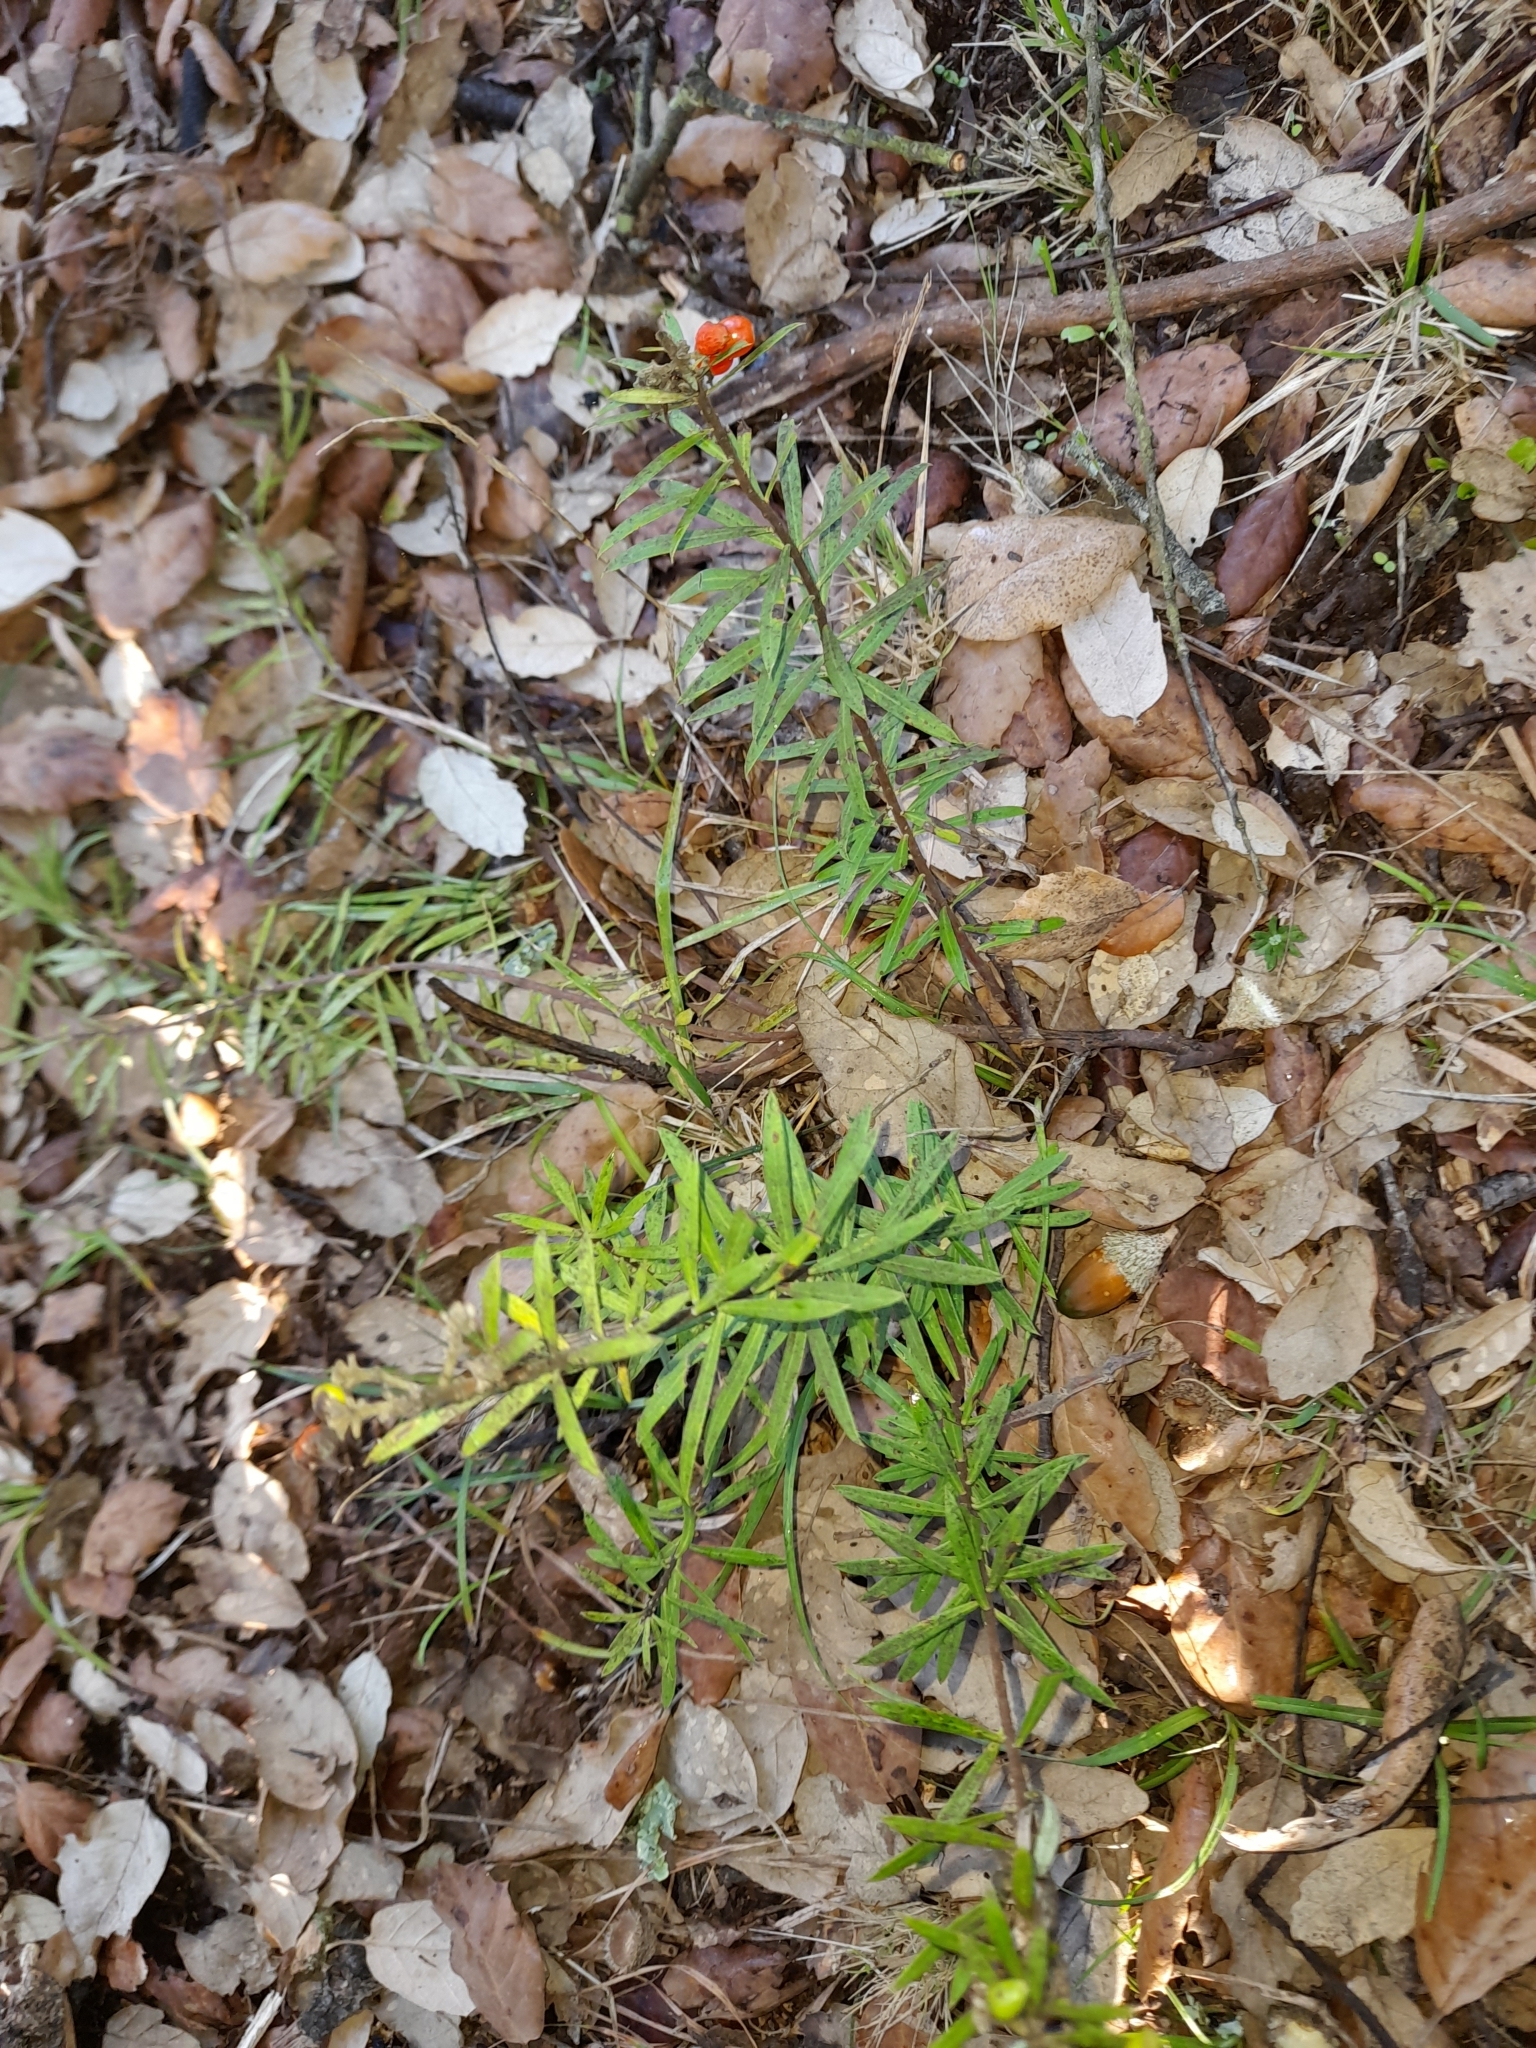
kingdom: Plantae
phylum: Tracheophyta
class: Magnoliopsida
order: Malvales
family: Thymelaeaceae
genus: Daphne
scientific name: Daphne gnidium
